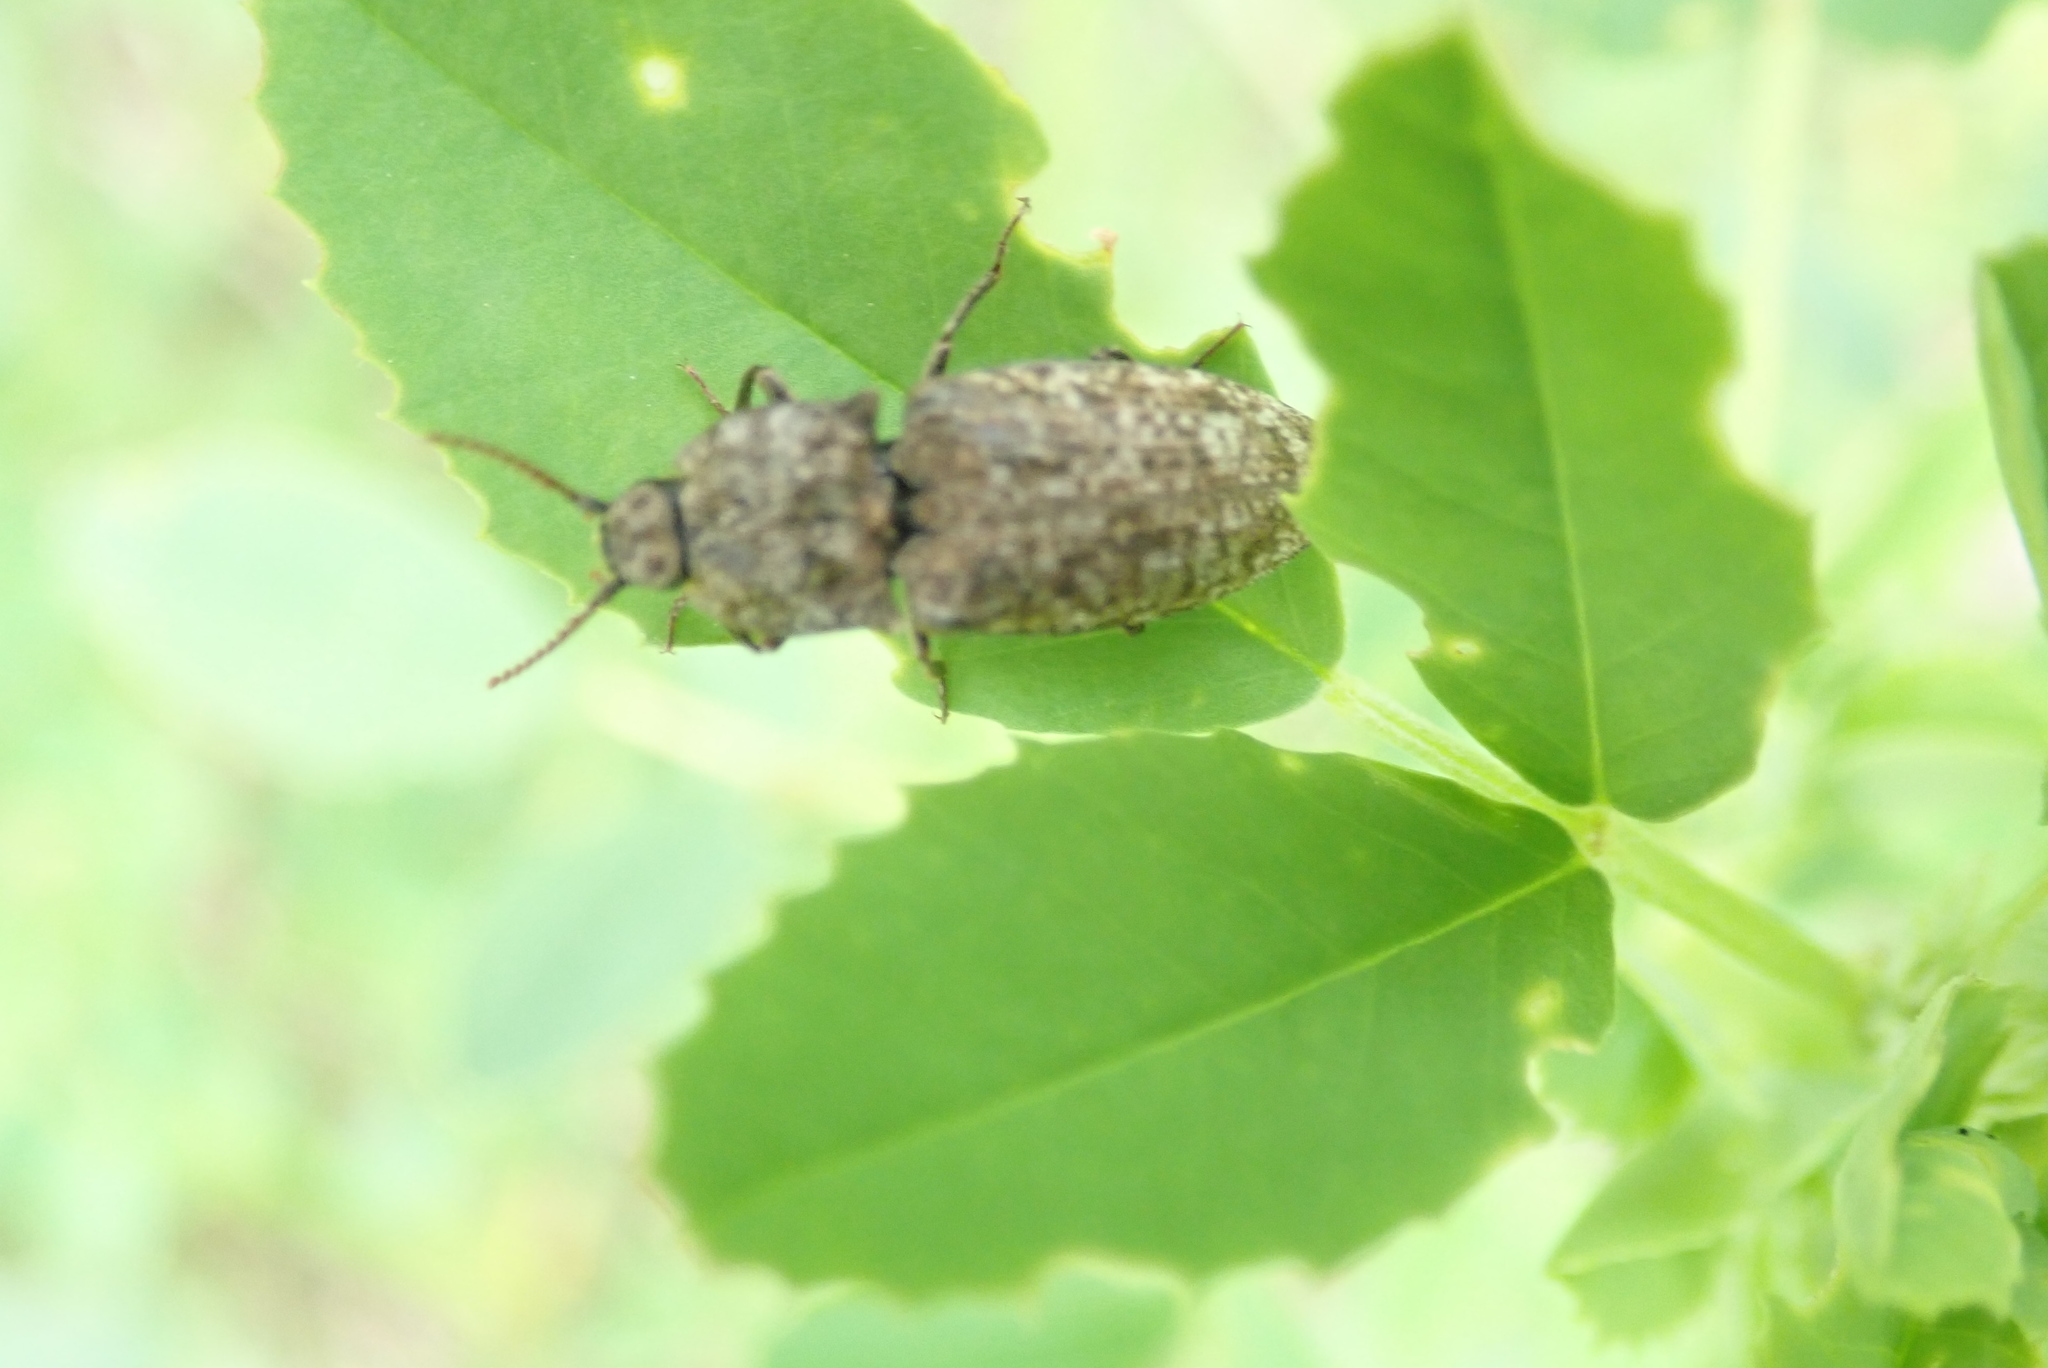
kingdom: Animalia
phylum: Arthropoda
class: Insecta
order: Coleoptera
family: Elateridae
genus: Agrypnus
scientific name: Agrypnus murinus
